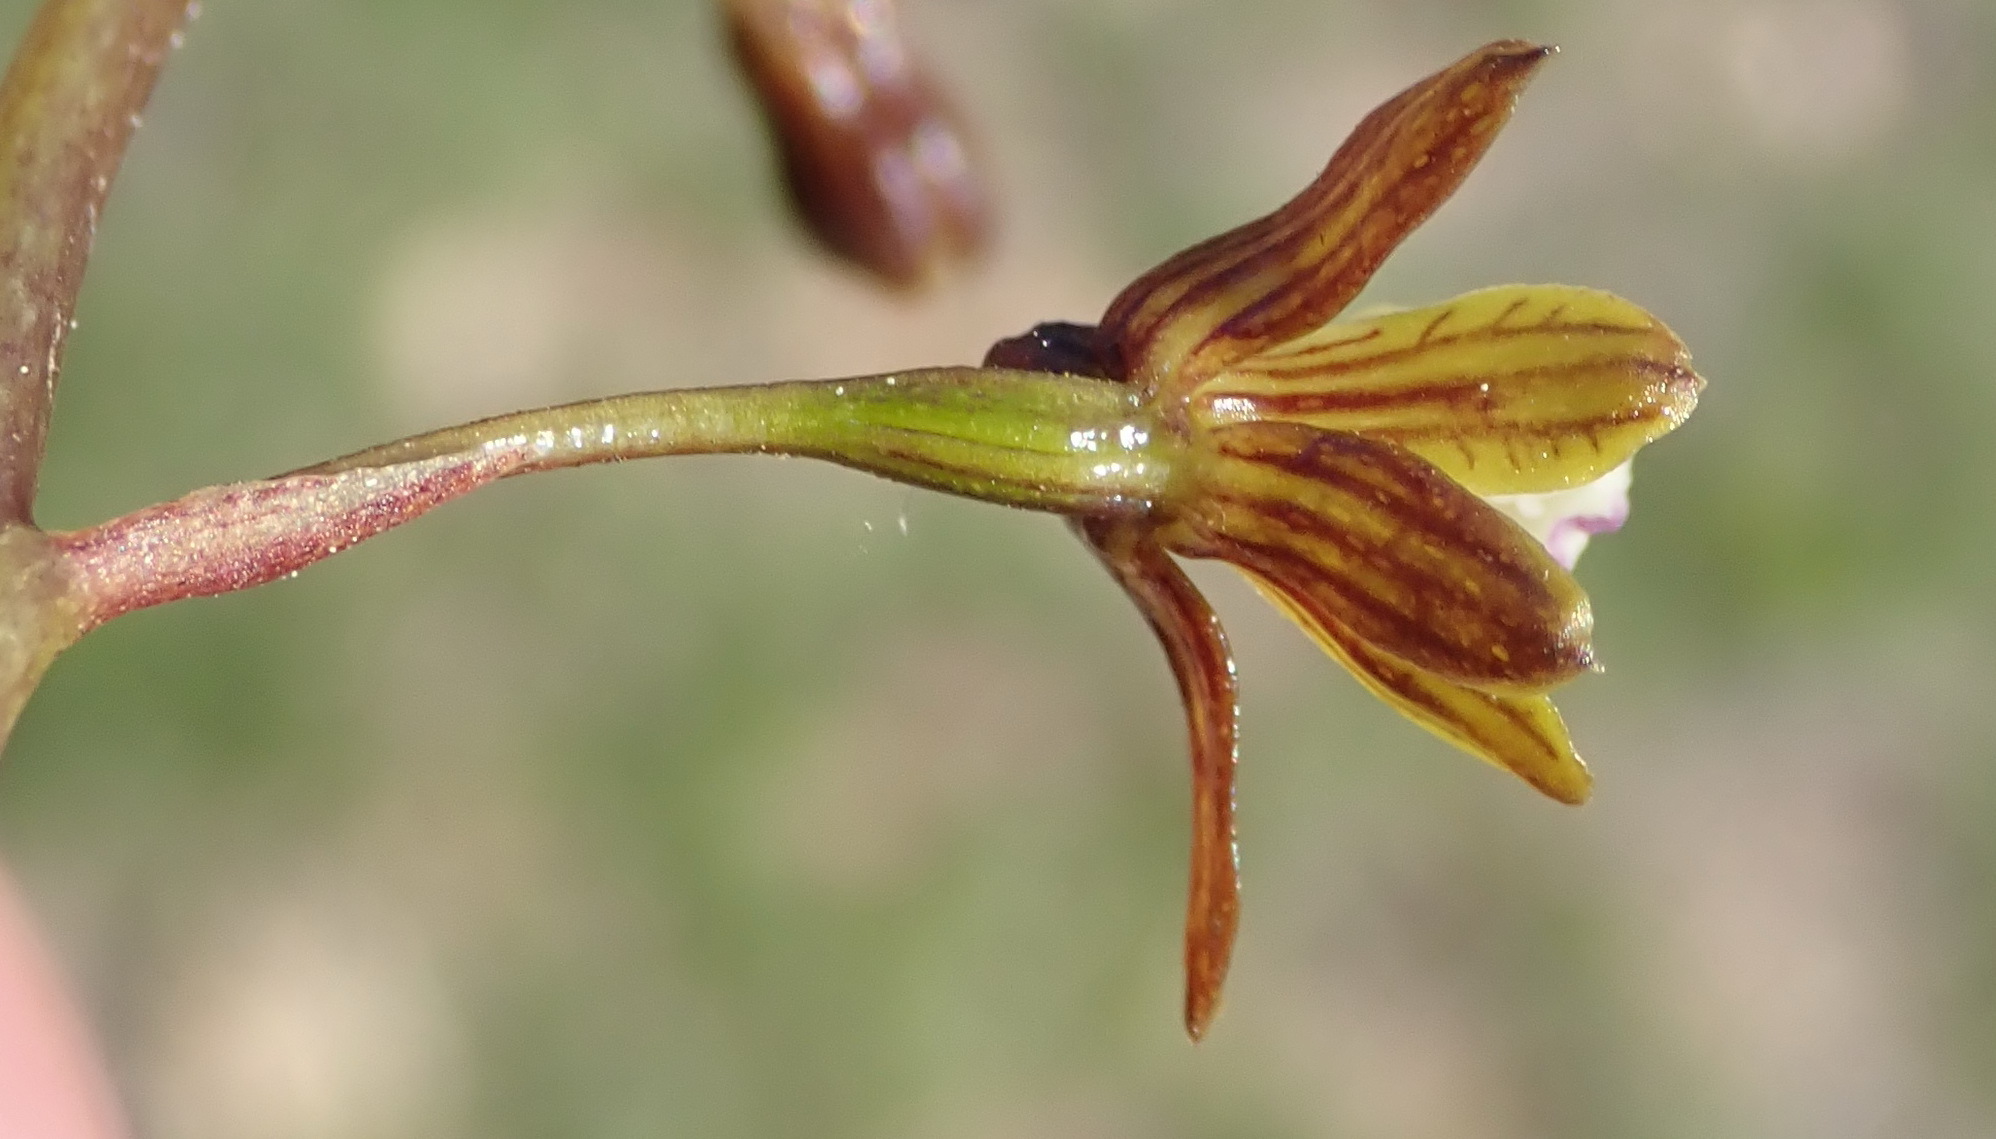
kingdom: Plantae
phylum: Tracheophyta
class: Liliopsida
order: Asparagales
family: Orchidaceae
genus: Eulophia
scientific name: Eulophia cochlearis
